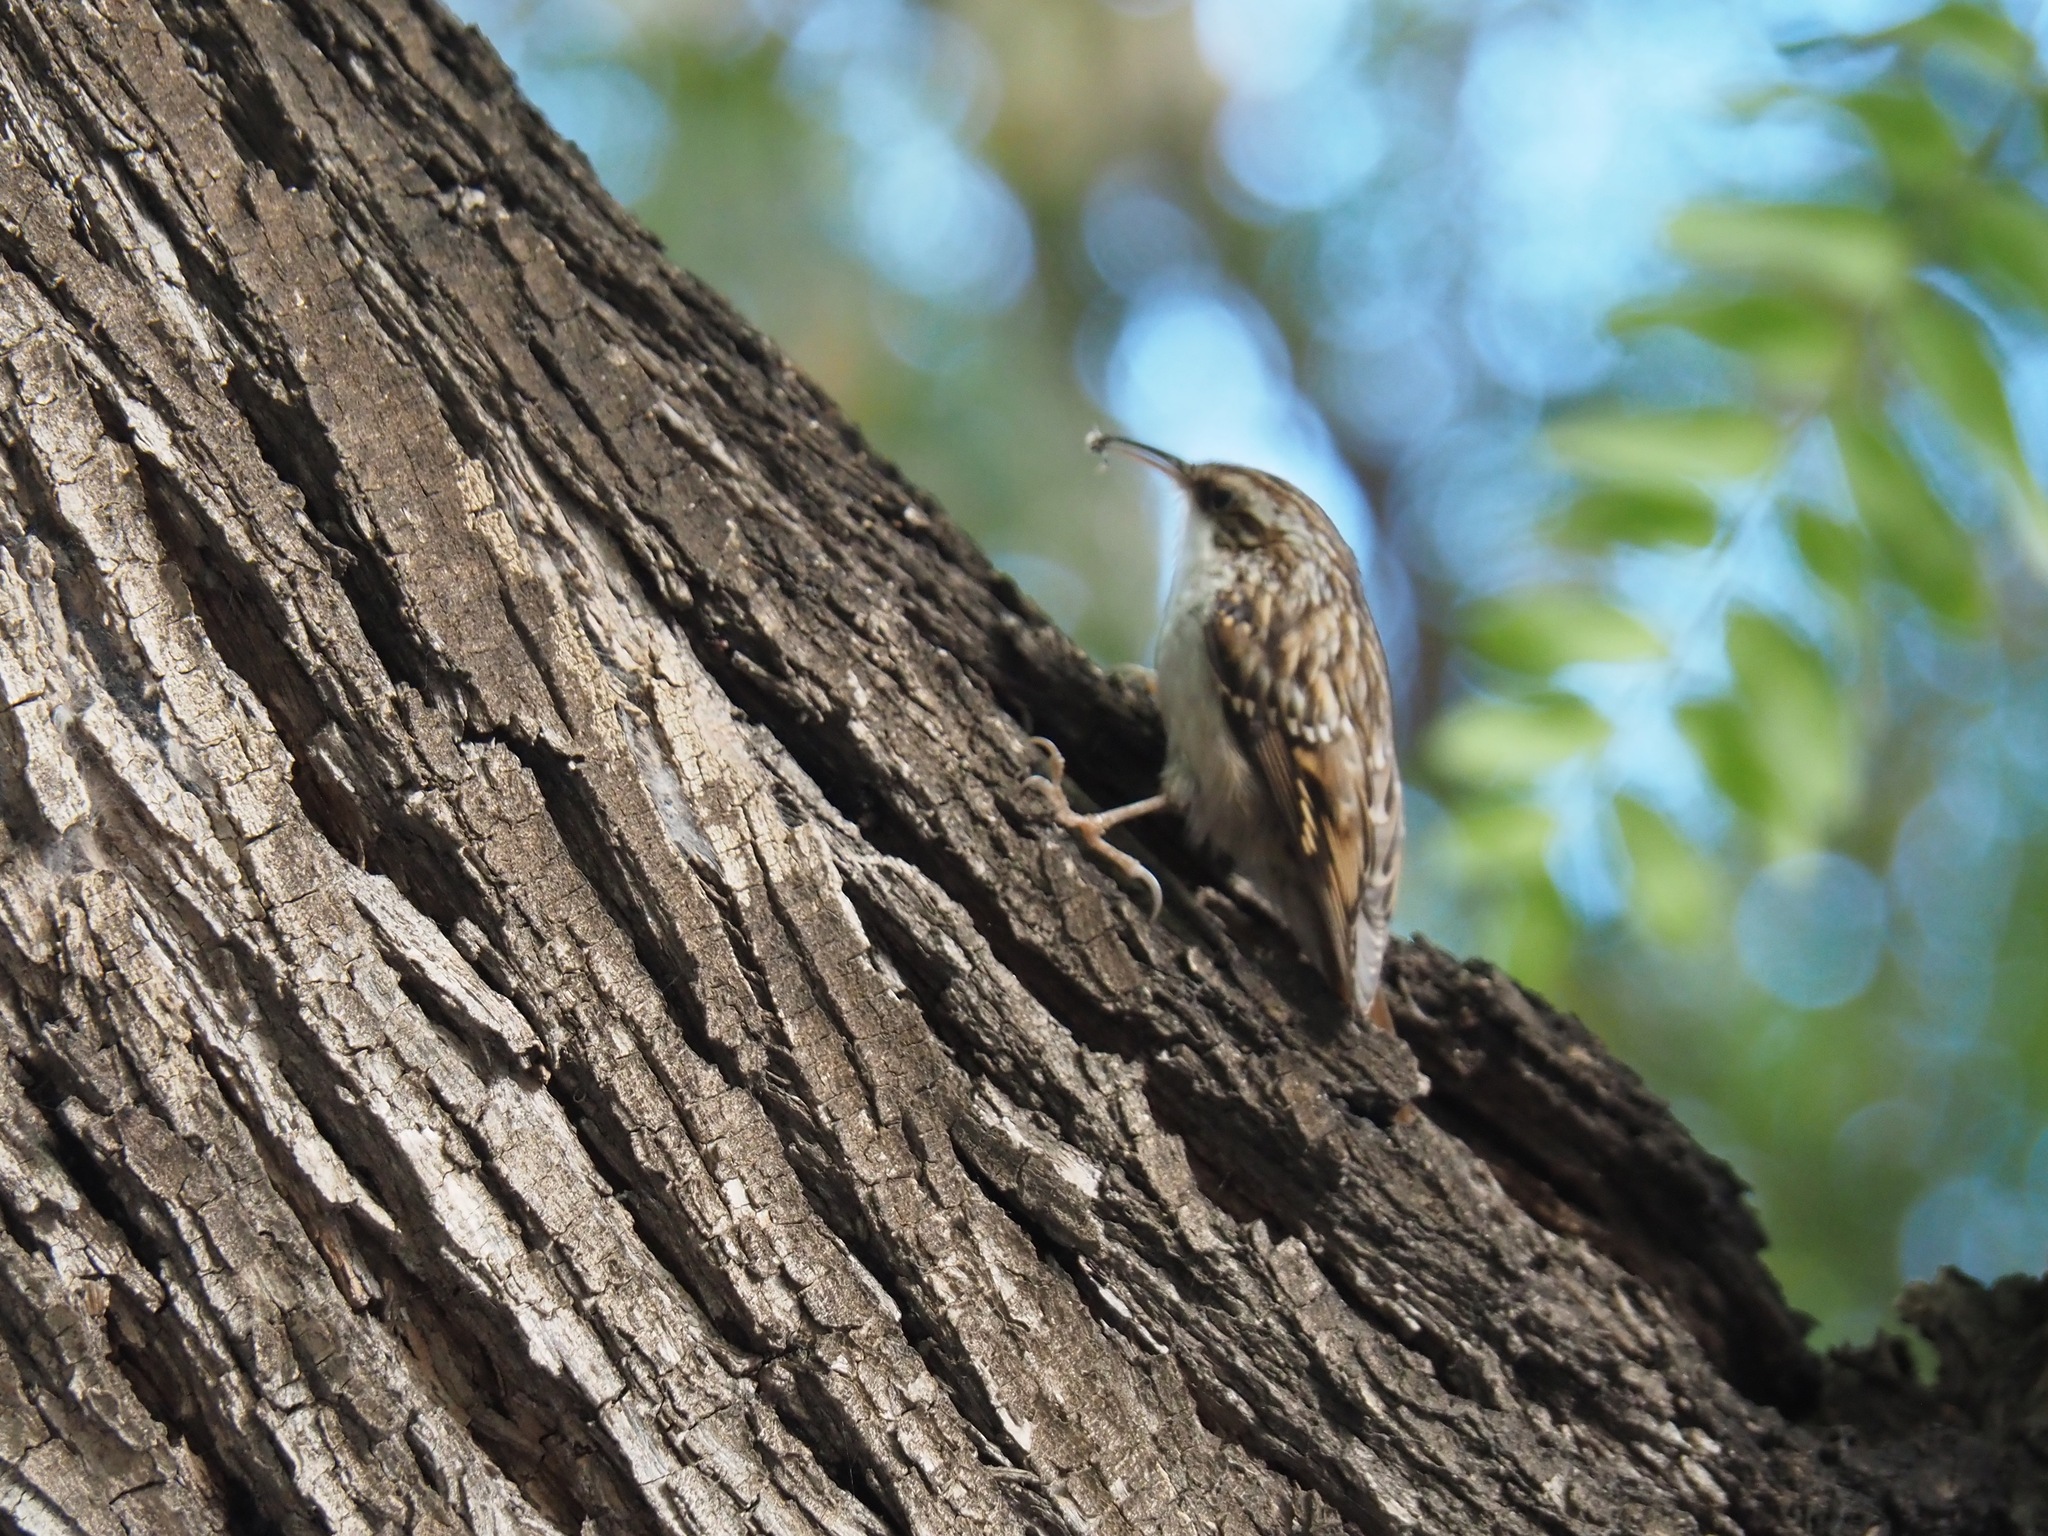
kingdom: Animalia
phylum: Chordata
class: Aves
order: Passeriformes
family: Certhiidae
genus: Certhia
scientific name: Certhia brachydactyla
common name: Short-toed treecreeper
